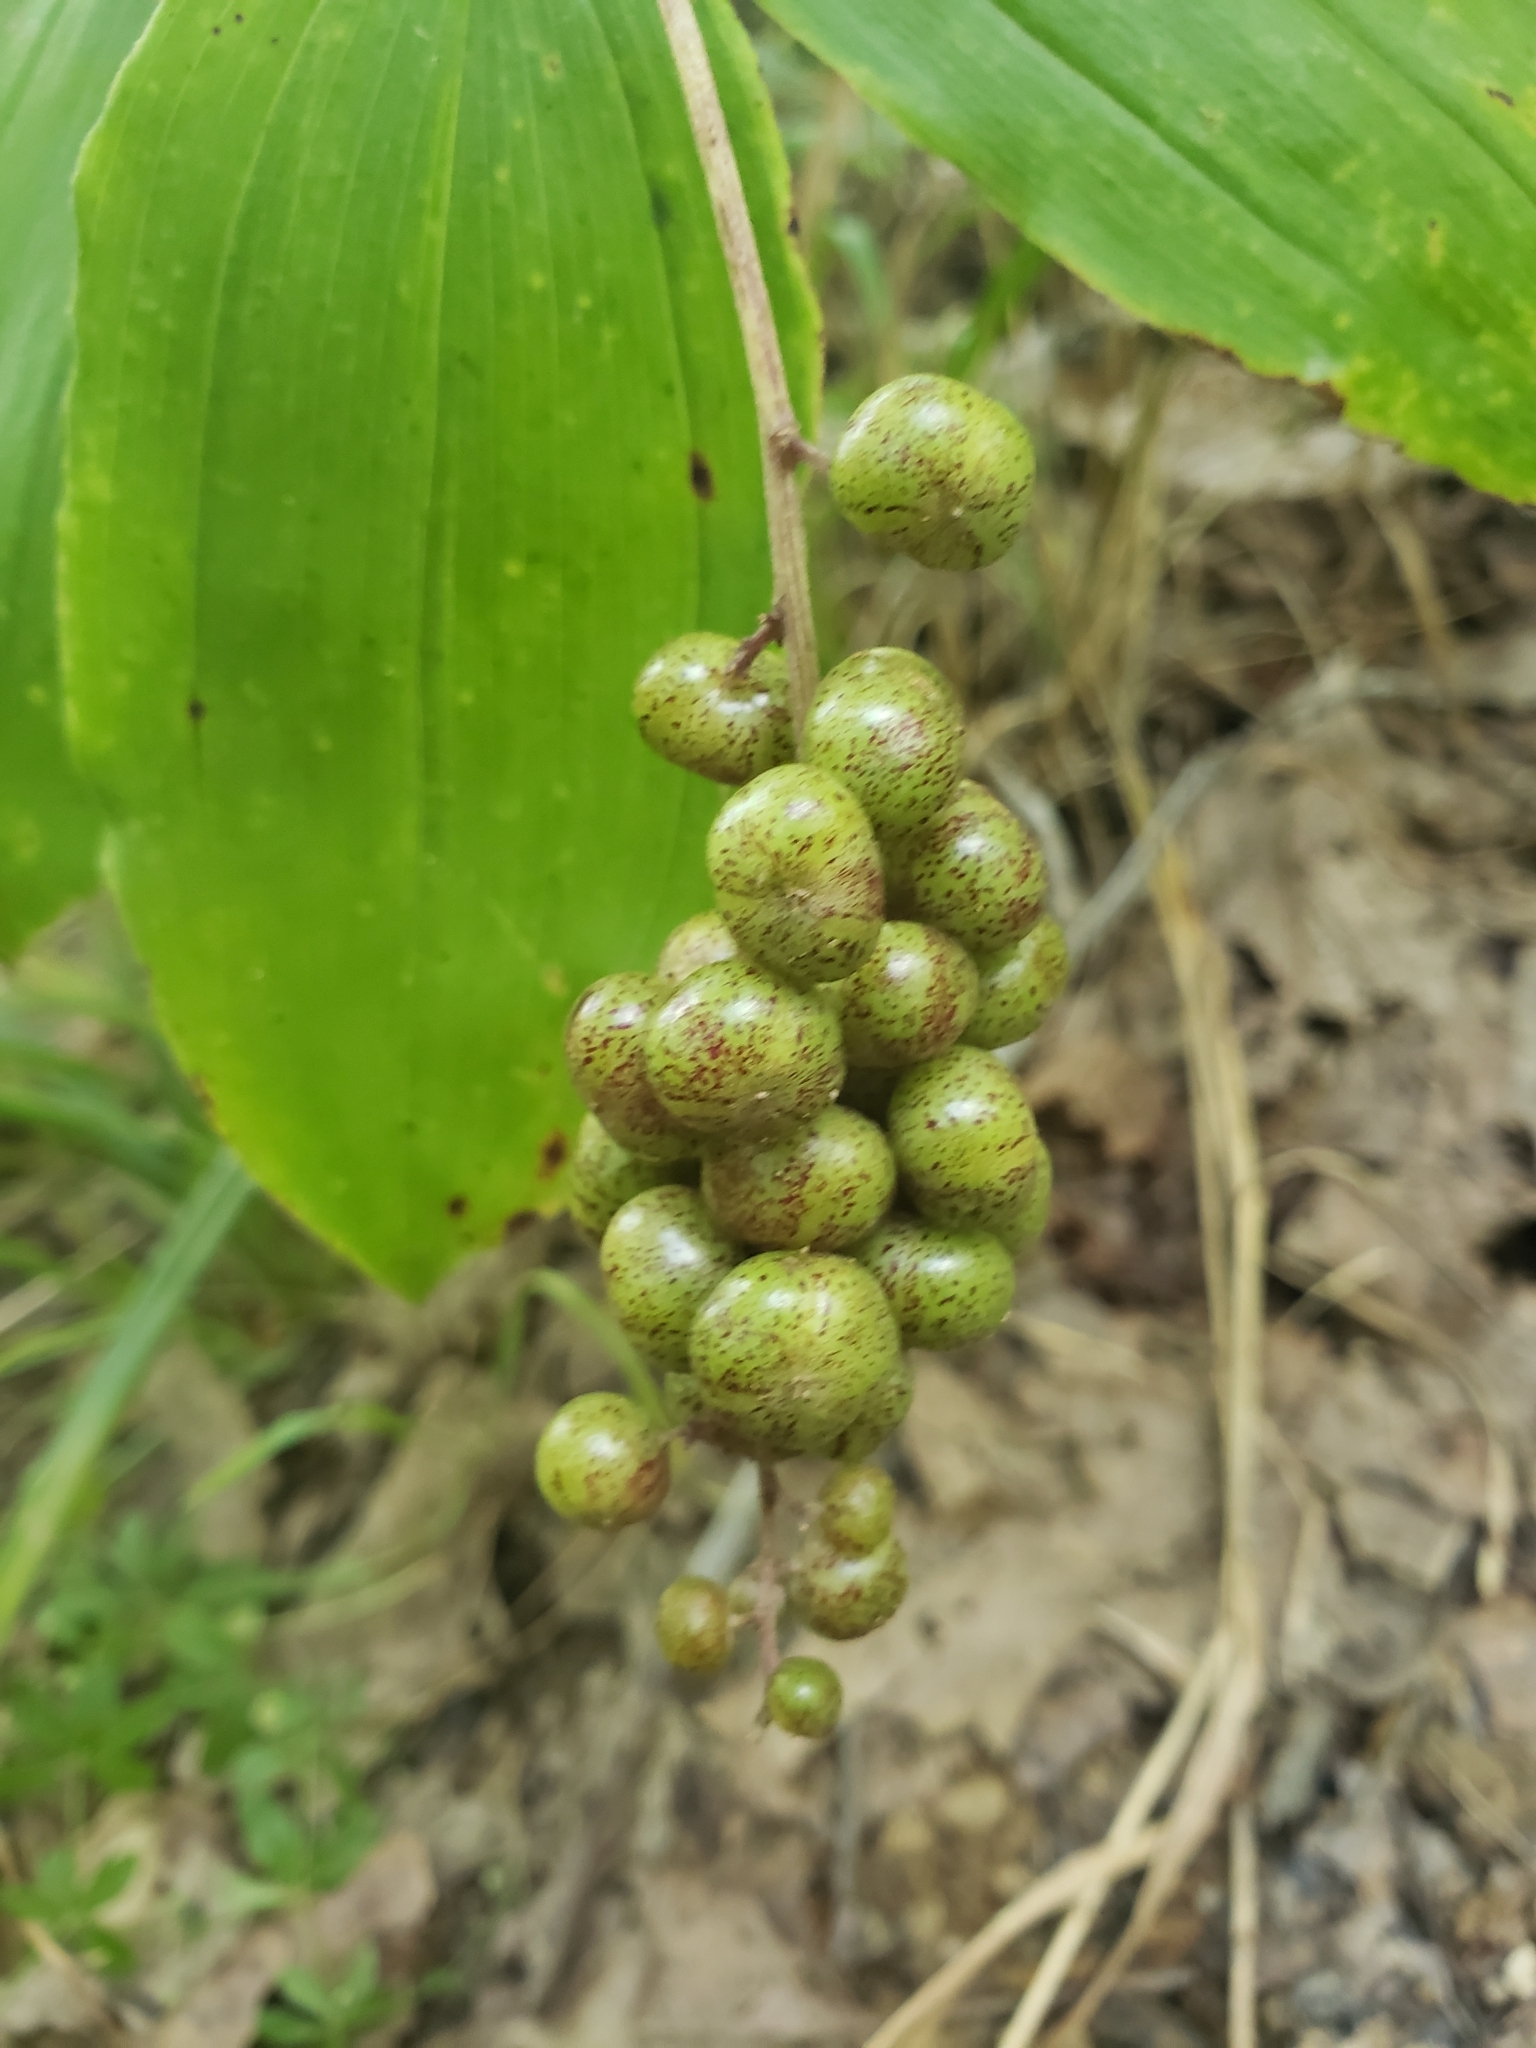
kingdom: Plantae
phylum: Tracheophyta
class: Liliopsida
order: Asparagales
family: Asparagaceae
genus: Maianthemum
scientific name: Maianthemum racemosum
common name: False spikenard
